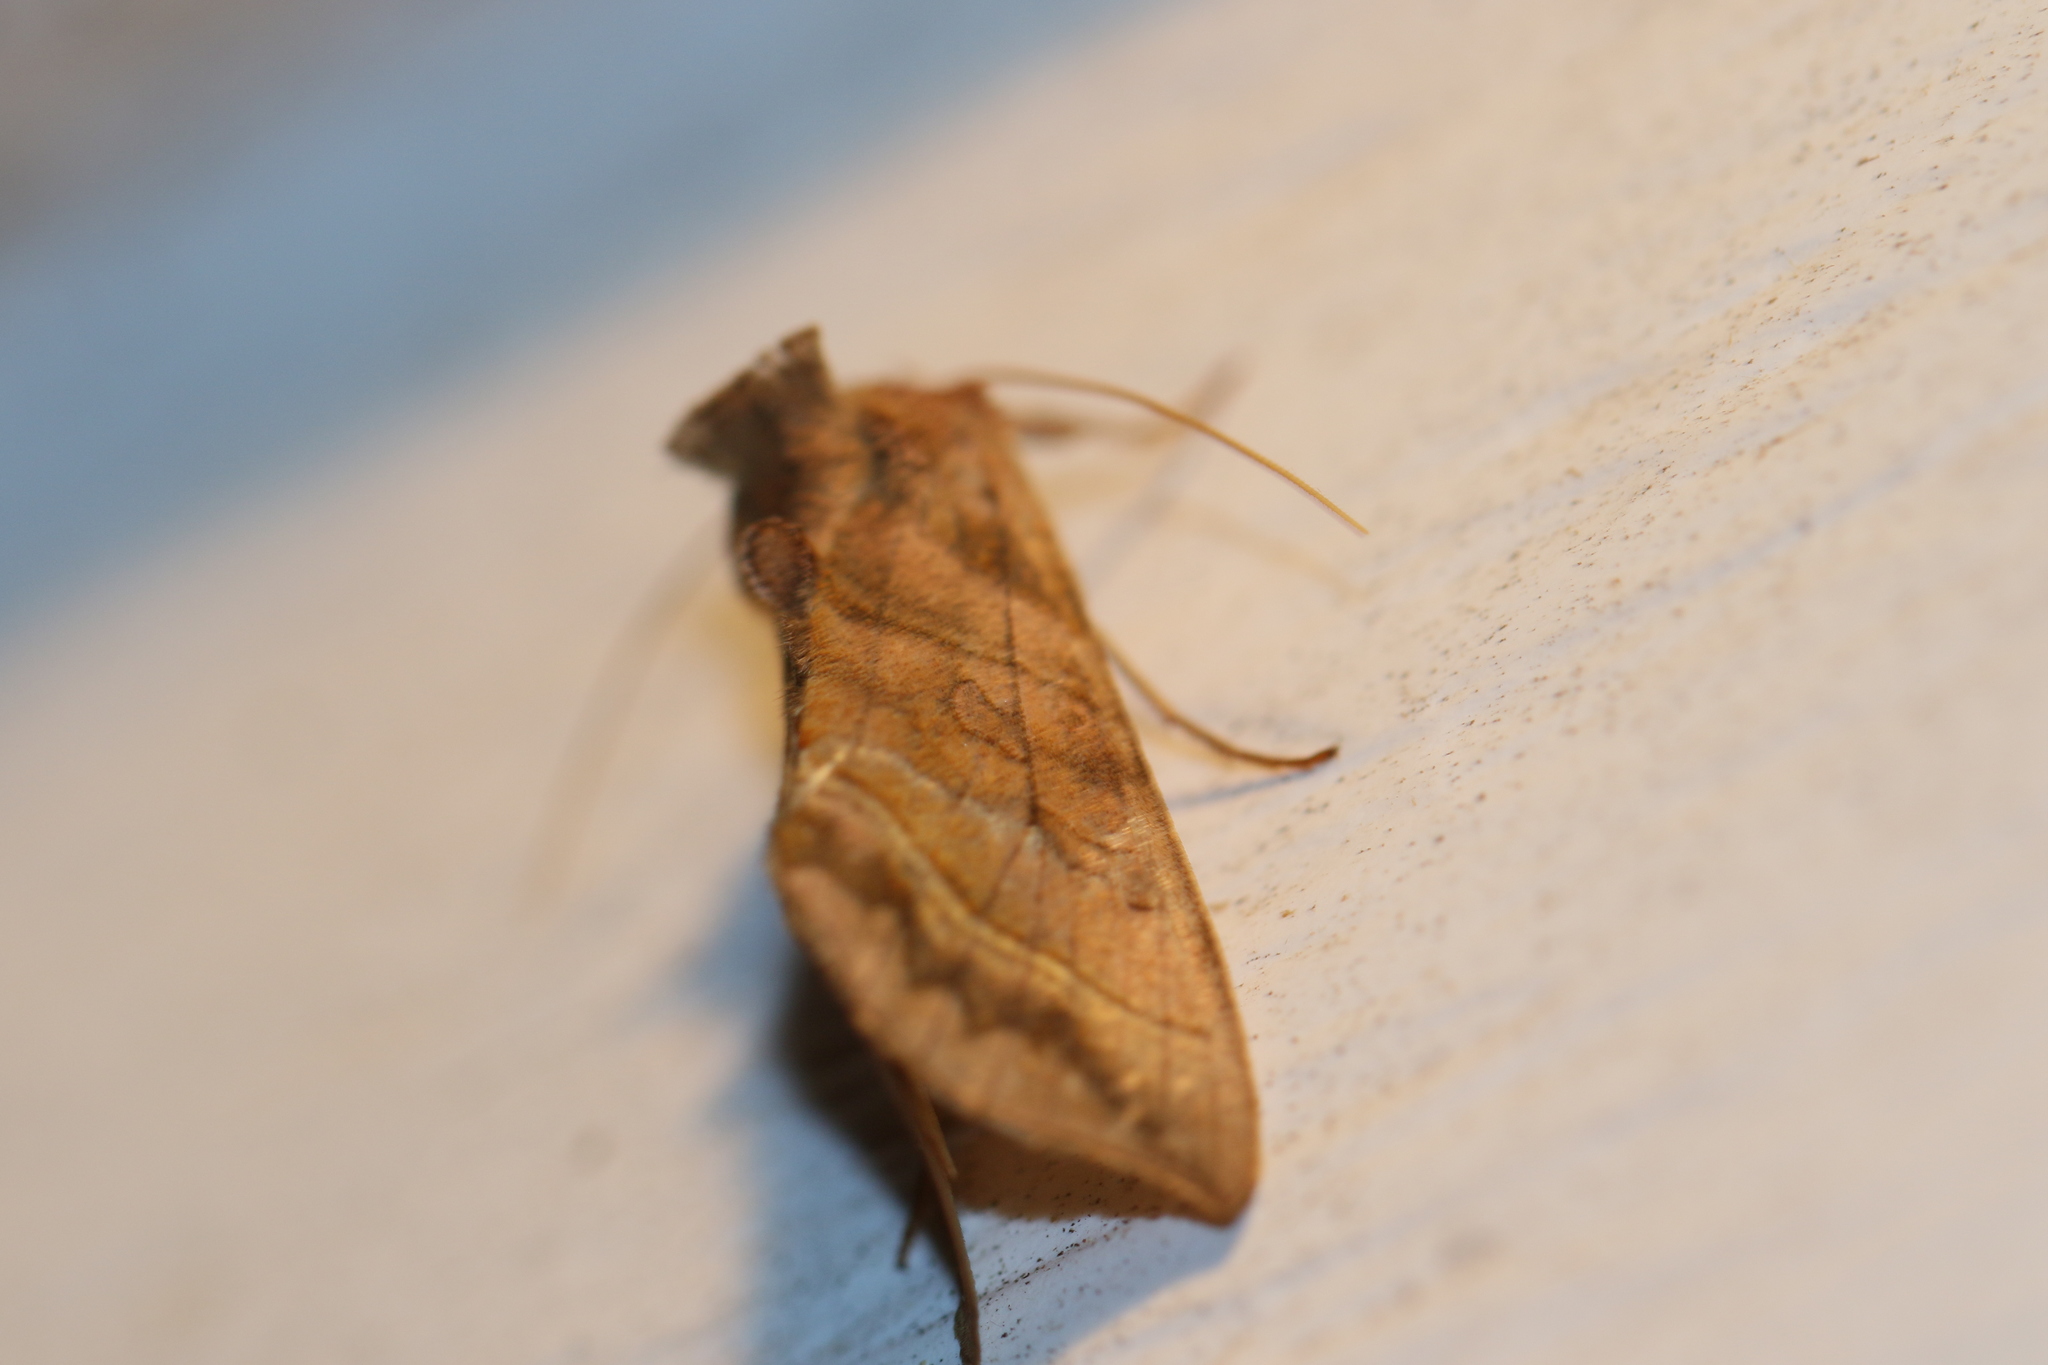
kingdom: Animalia
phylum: Arthropoda
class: Insecta
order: Lepidoptera
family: Noctuidae
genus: Diachrysia
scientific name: Diachrysia aereoides
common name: Dark-spotted looper moth
